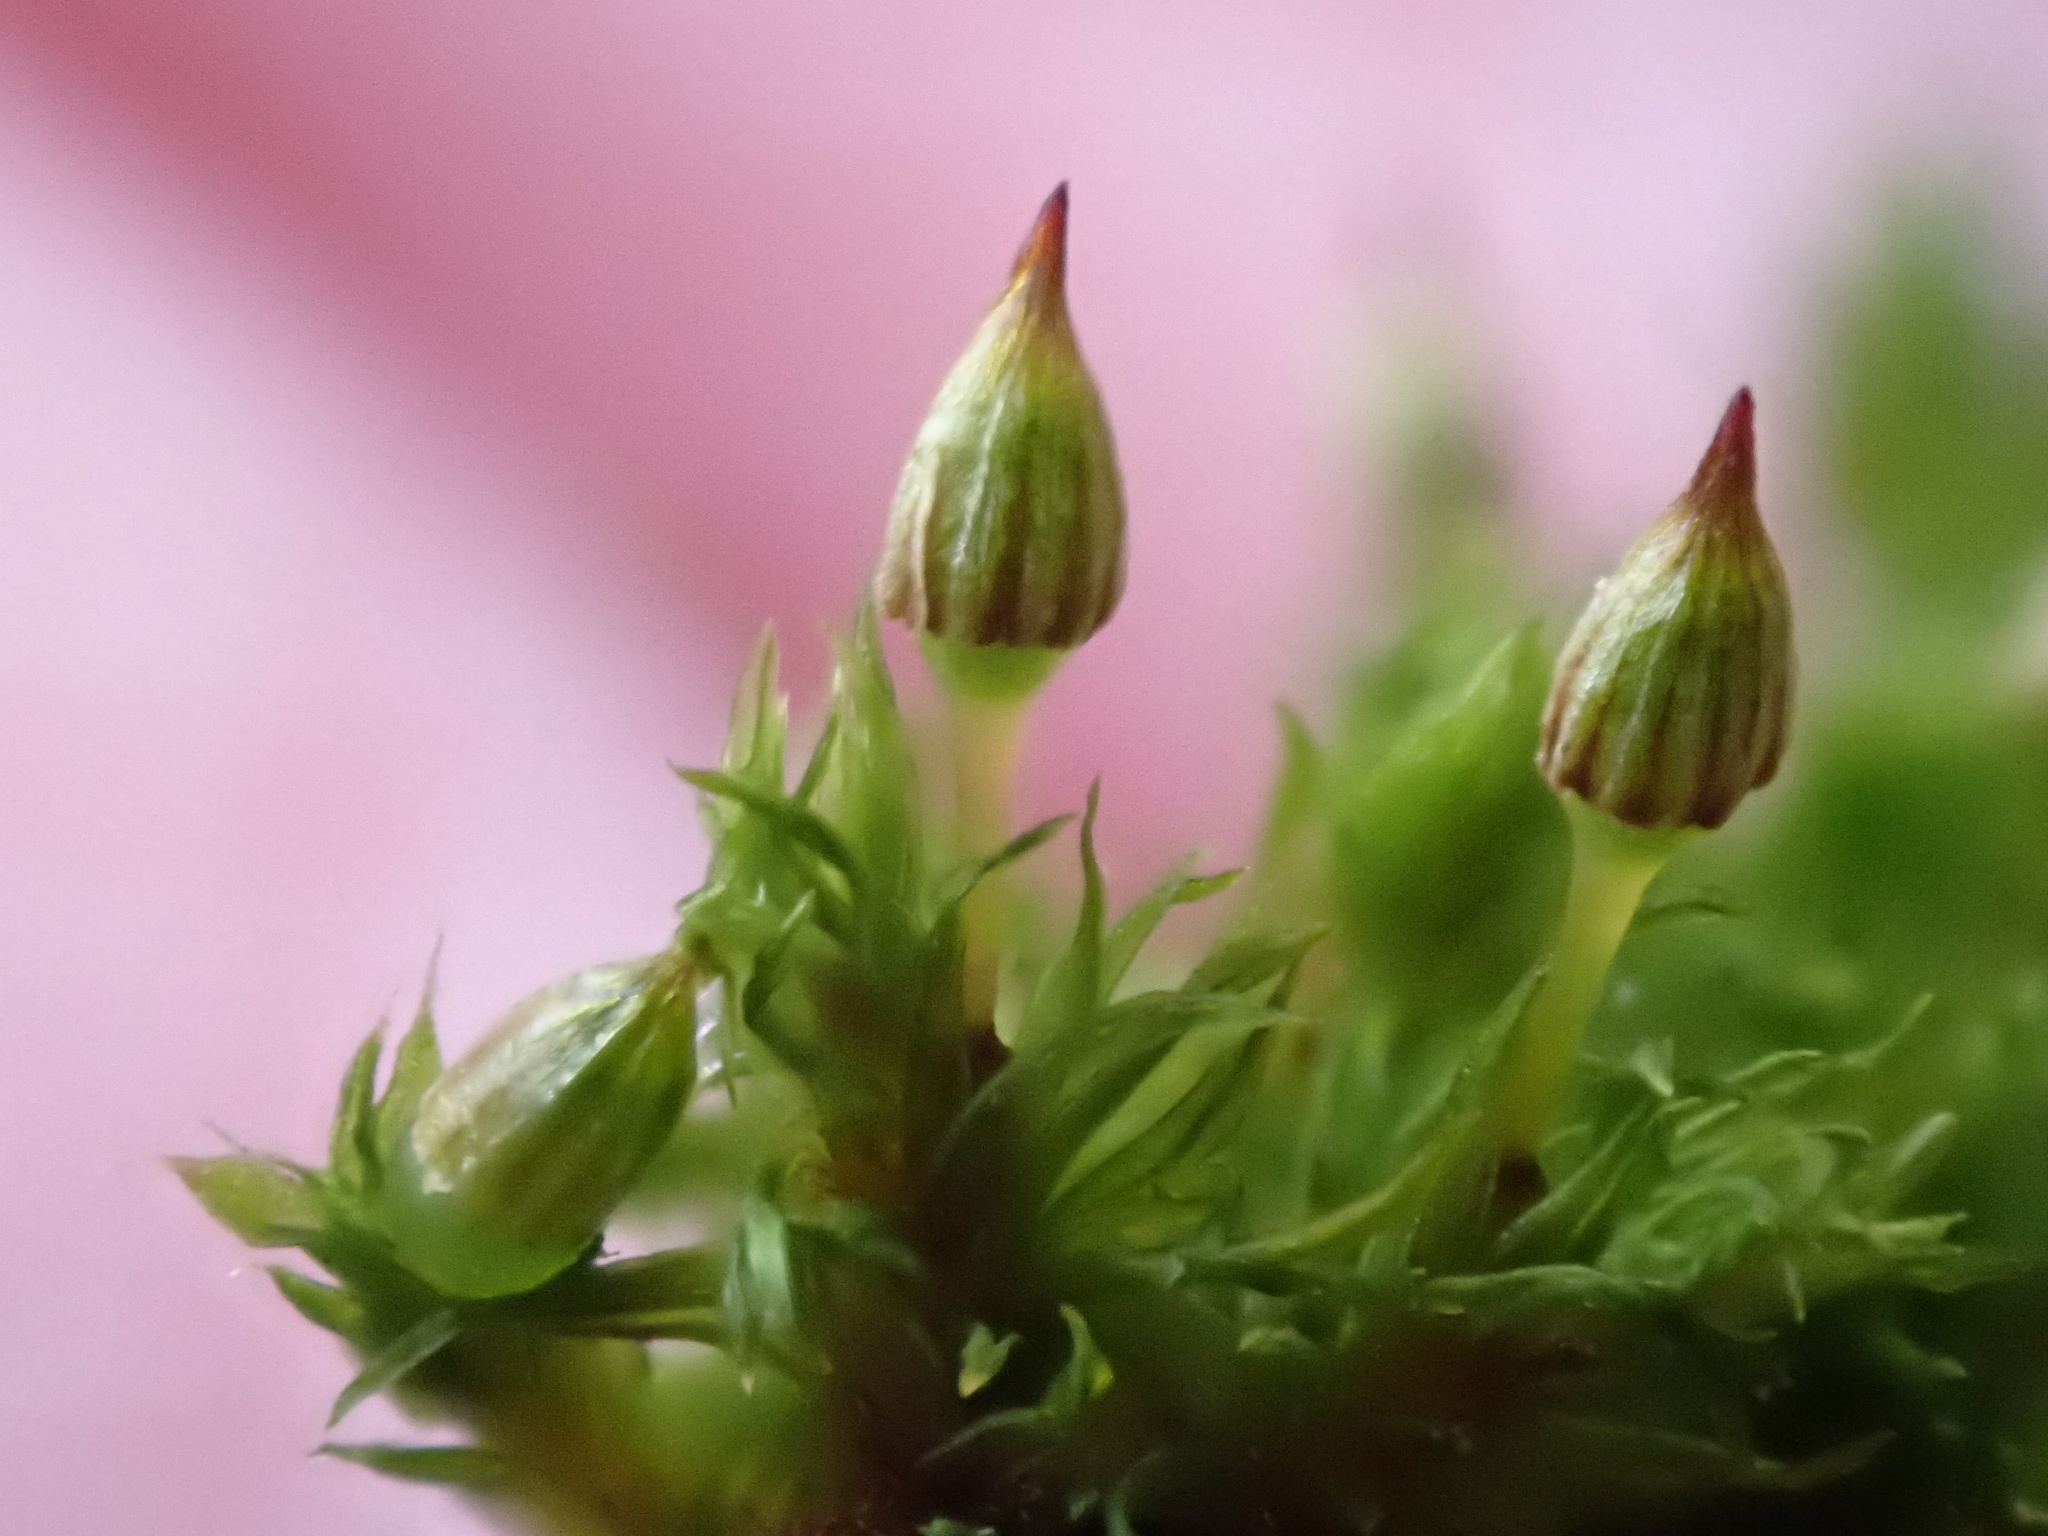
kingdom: Plantae
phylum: Bryophyta
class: Bryopsida
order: Orthotrichales
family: Orthotrichaceae
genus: Orthotrichum
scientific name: Orthotrichum pulchellum
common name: Elegant bristle-moss
